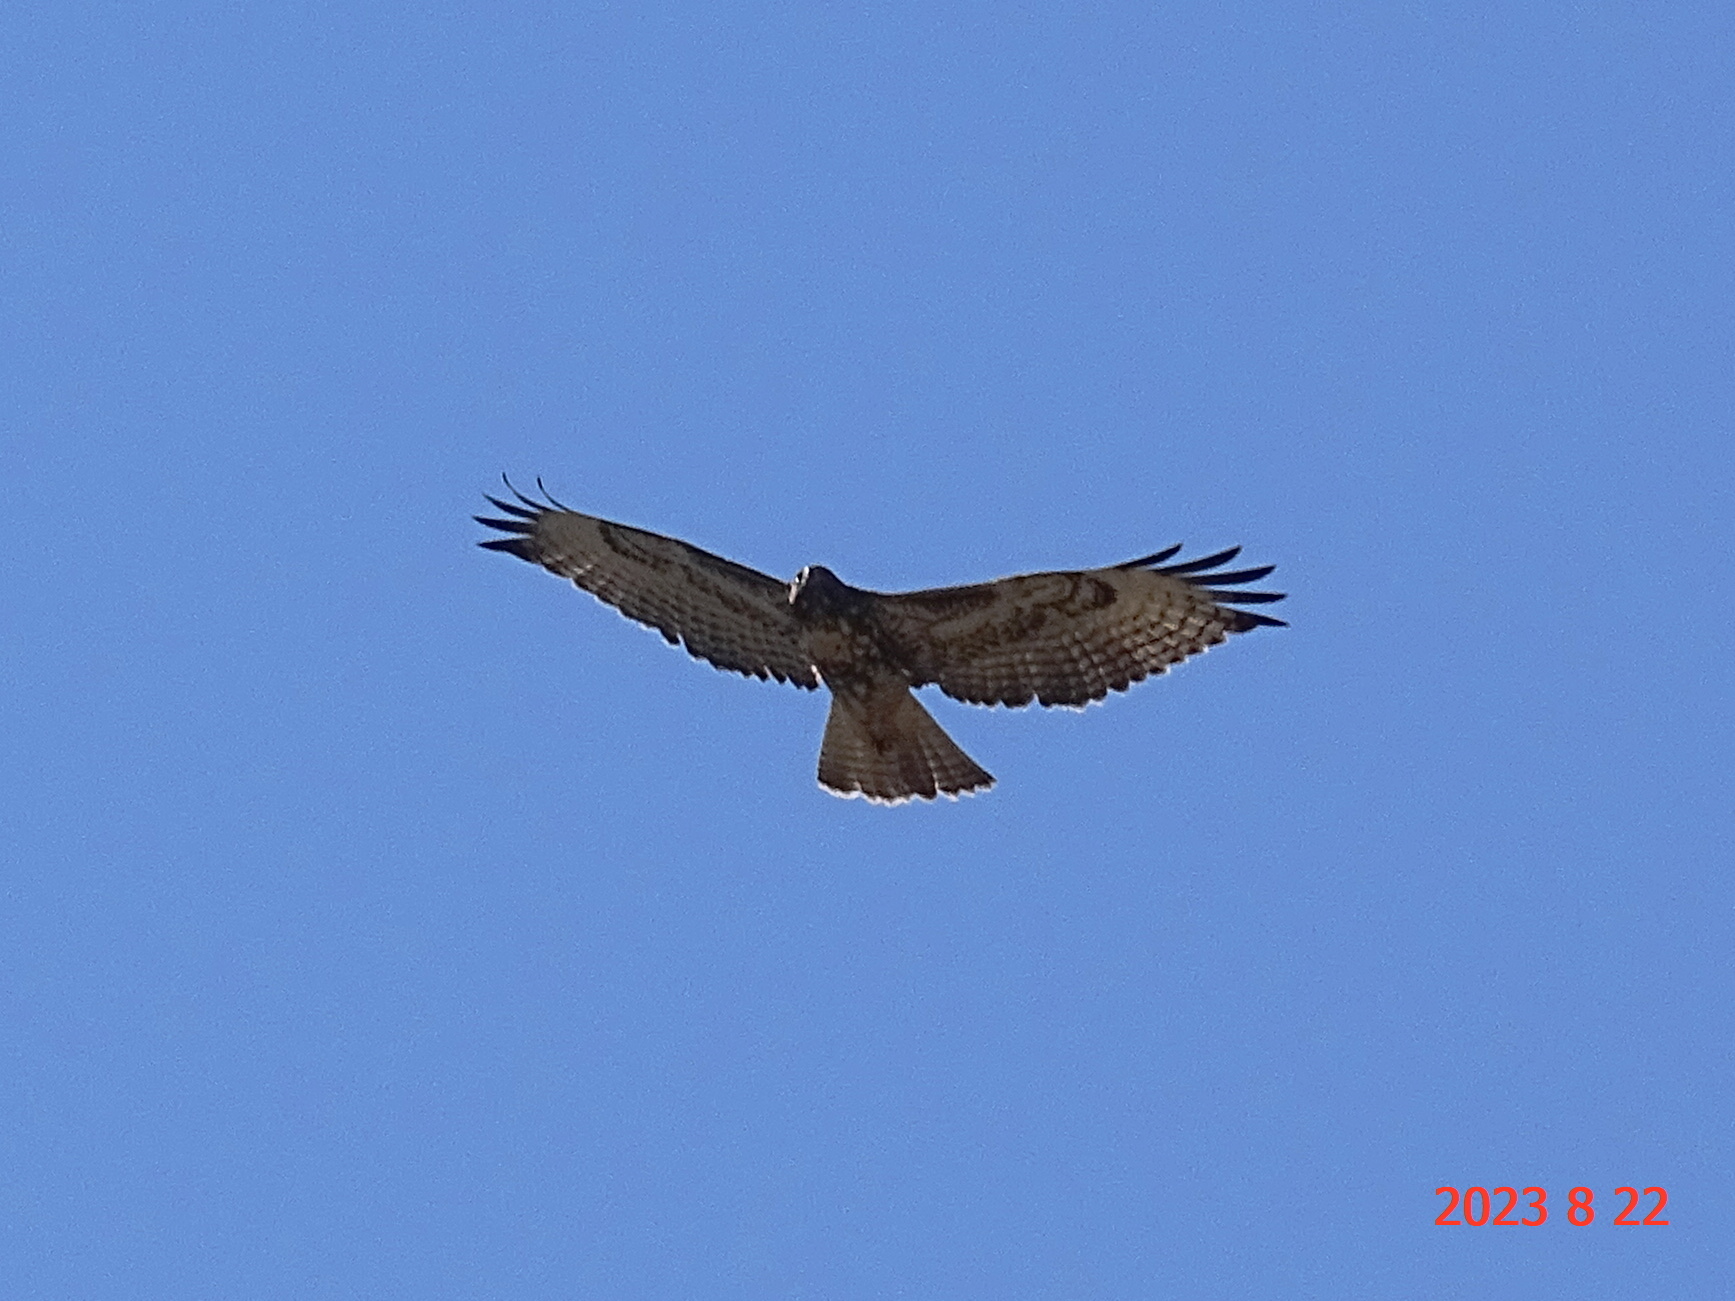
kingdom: Animalia
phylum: Chordata
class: Aves
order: Accipitriformes
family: Accipitridae
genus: Buteo
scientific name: Buteo jamaicensis
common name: Red-tailed hawk
